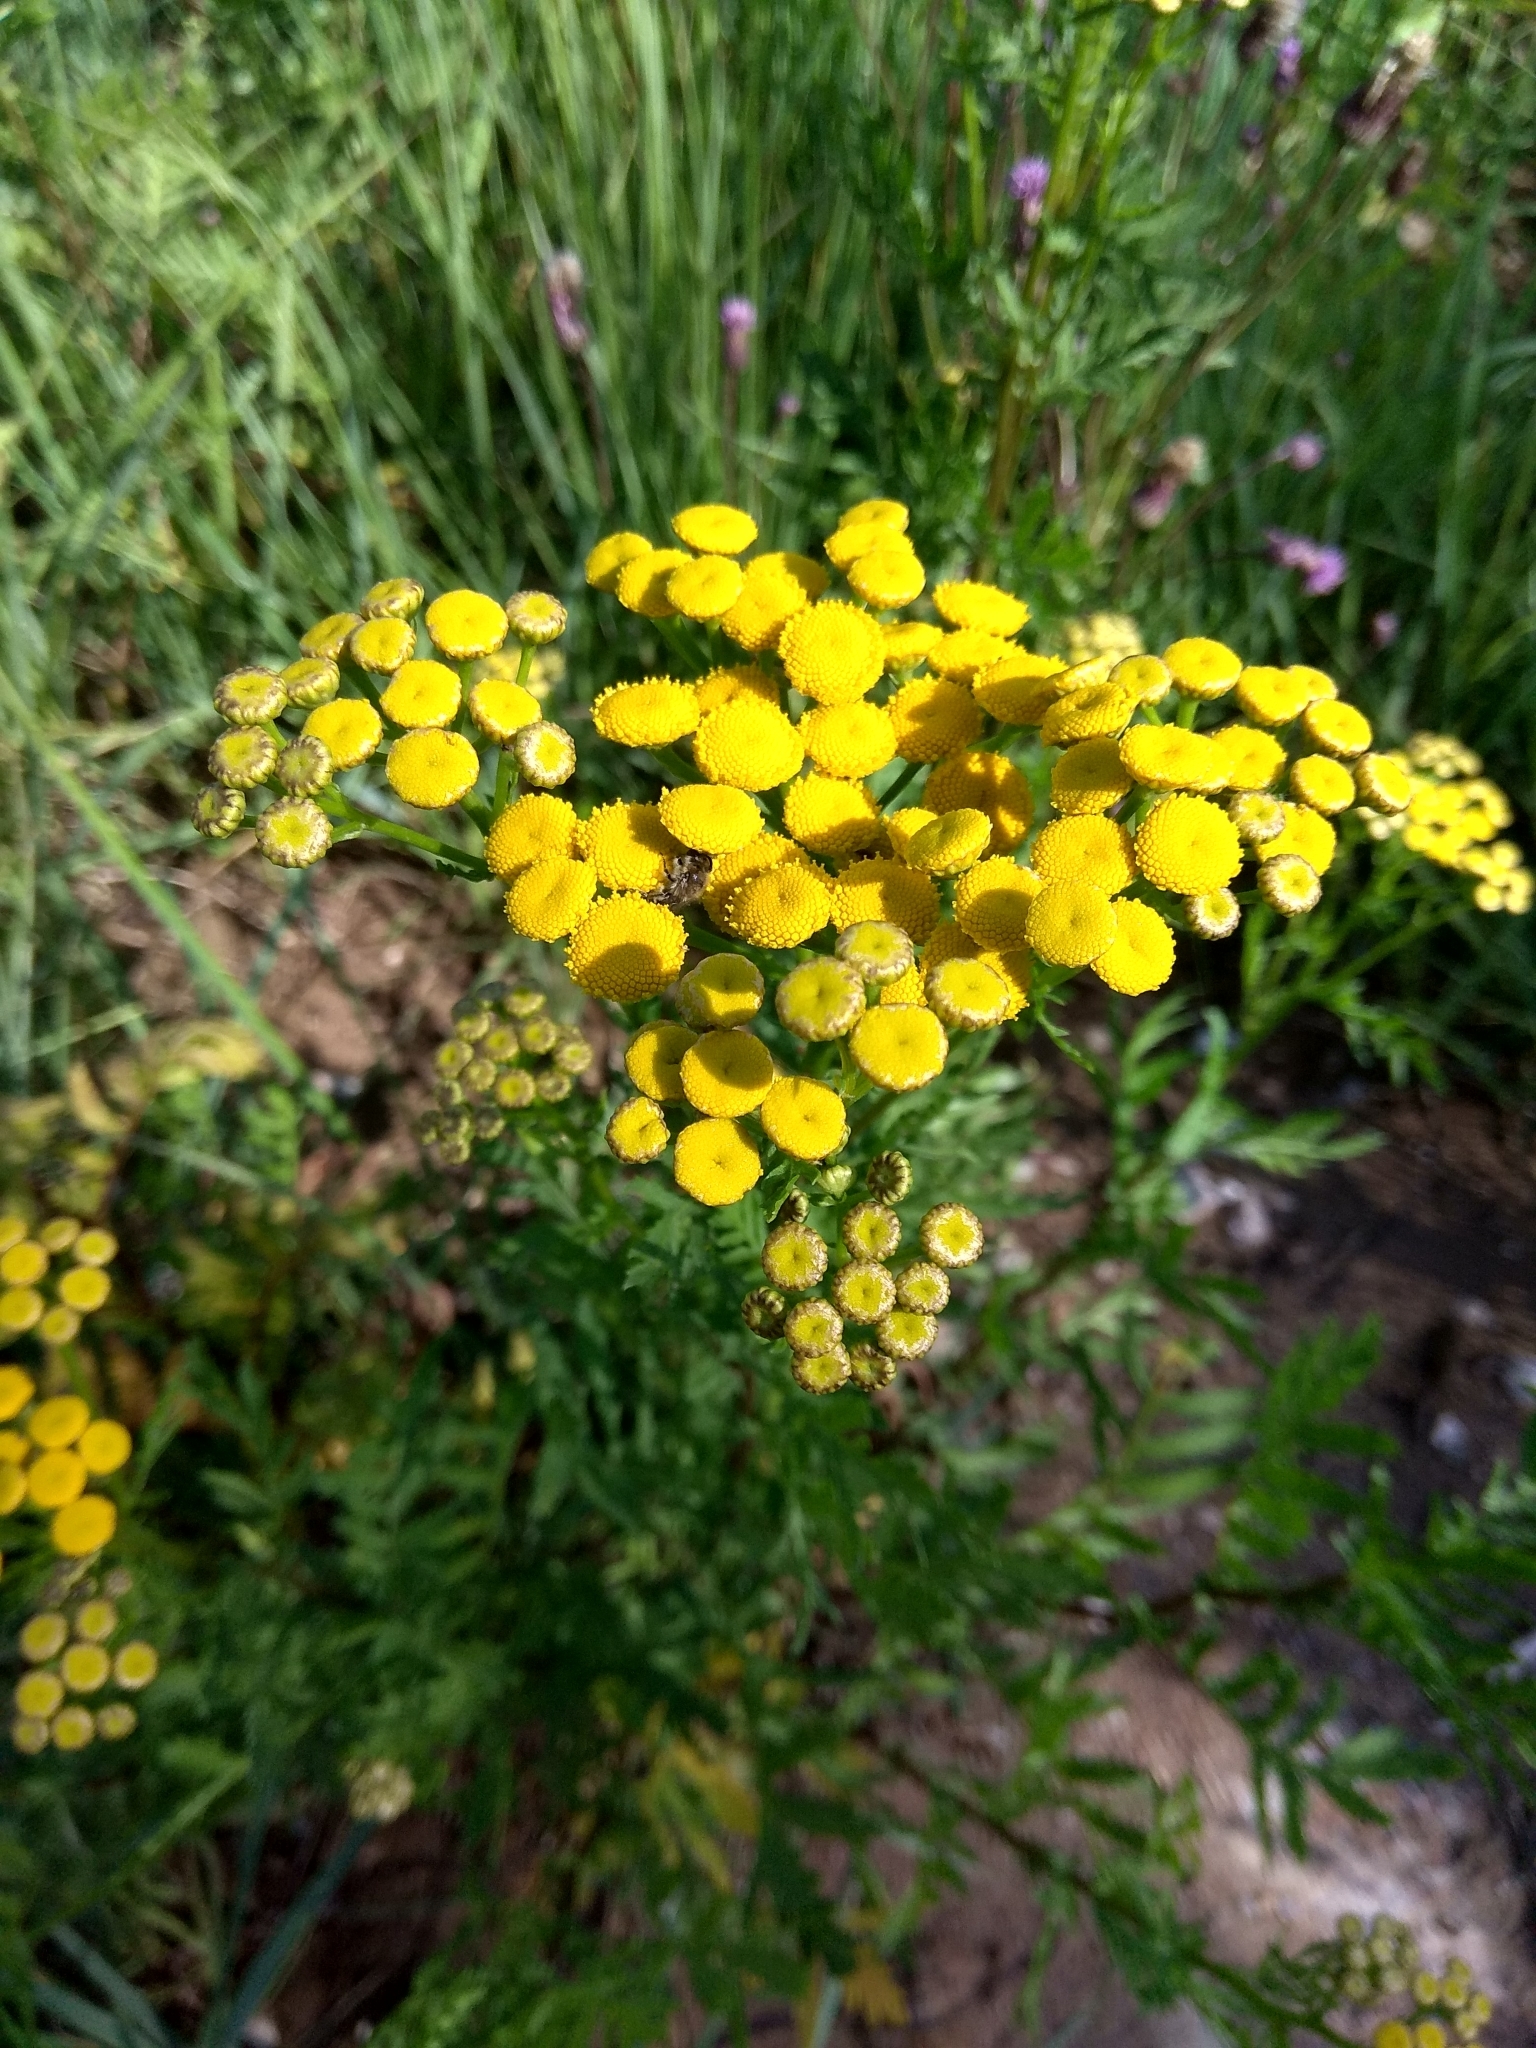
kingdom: Plantae
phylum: Tracheophyta
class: Magnoliopsida
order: Asterales
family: Asteraceae
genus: Tanacetum
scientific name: Tanacetum vulgare
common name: Common tansy
